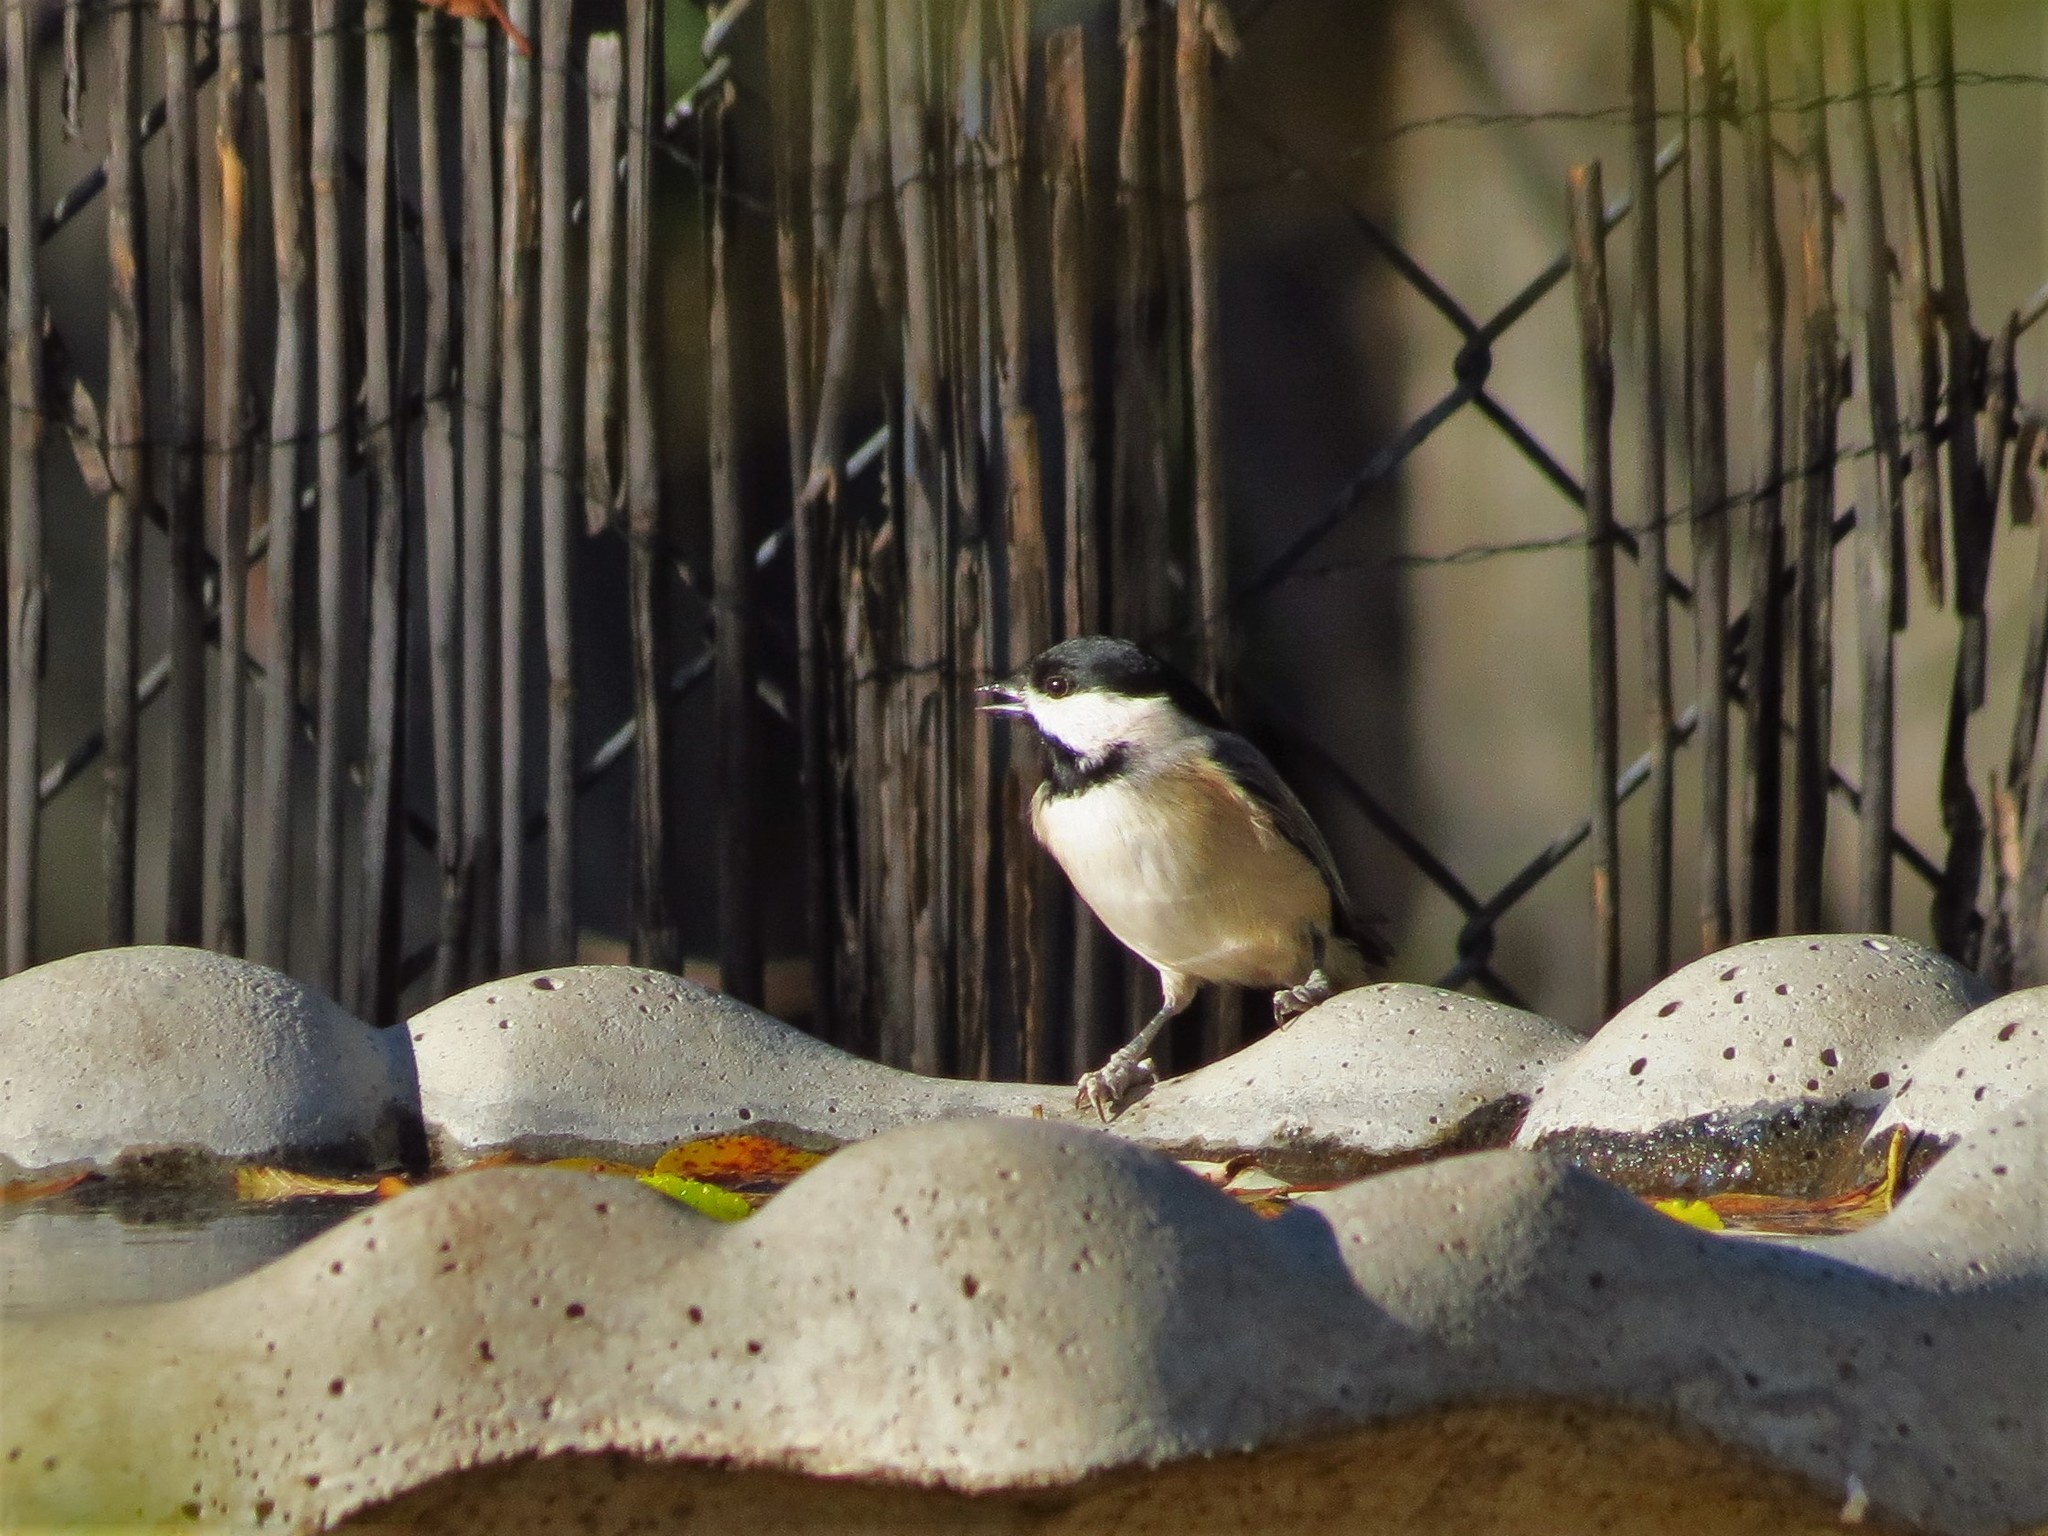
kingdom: Animalia
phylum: Chordata
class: Aves
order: Passeriformes
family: Paridae
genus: Poecile
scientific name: Poecile carolinensis
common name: Carolina chickadee
